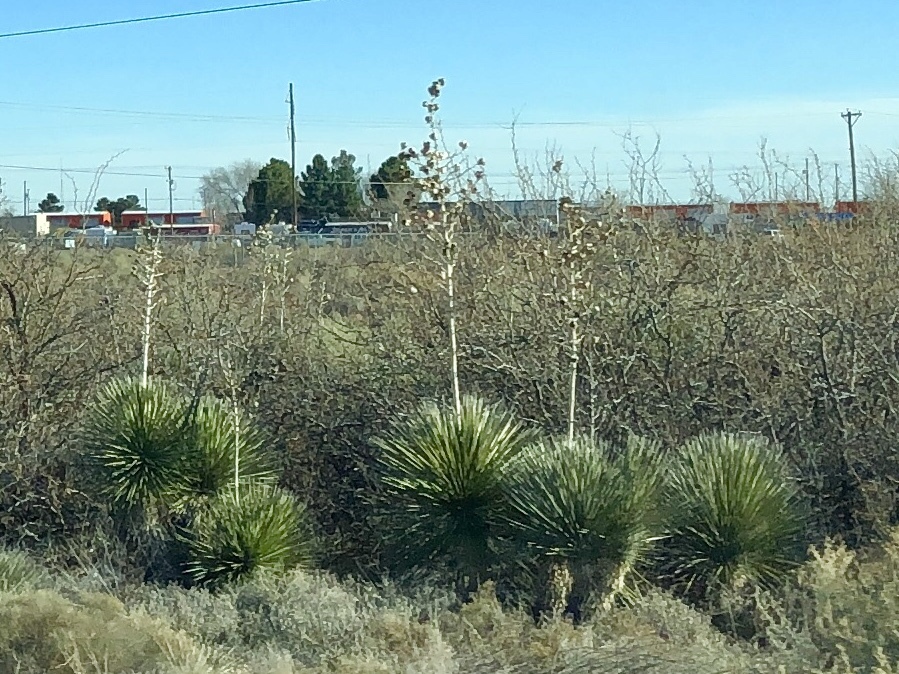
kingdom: Plantae
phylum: Tracheophyta
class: Liliopsida
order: Asparagales
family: Asparagaceae
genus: Yucca
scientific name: Yucca elata
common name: Palmella
